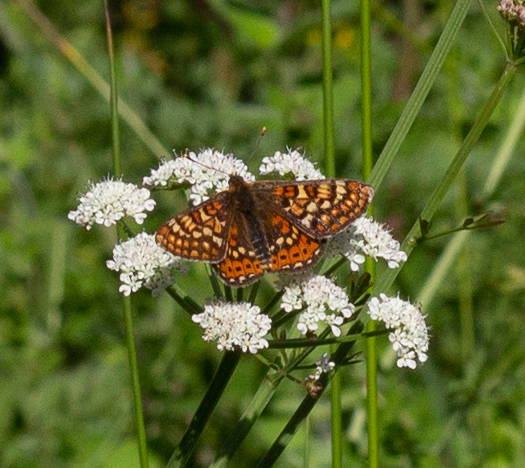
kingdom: Animalia
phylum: Arthropoda
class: Insecta
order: Lepidoptera
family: Nymphalidae
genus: Euphydryas
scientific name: Euphydryas aurinia
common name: Marsh fritillary
